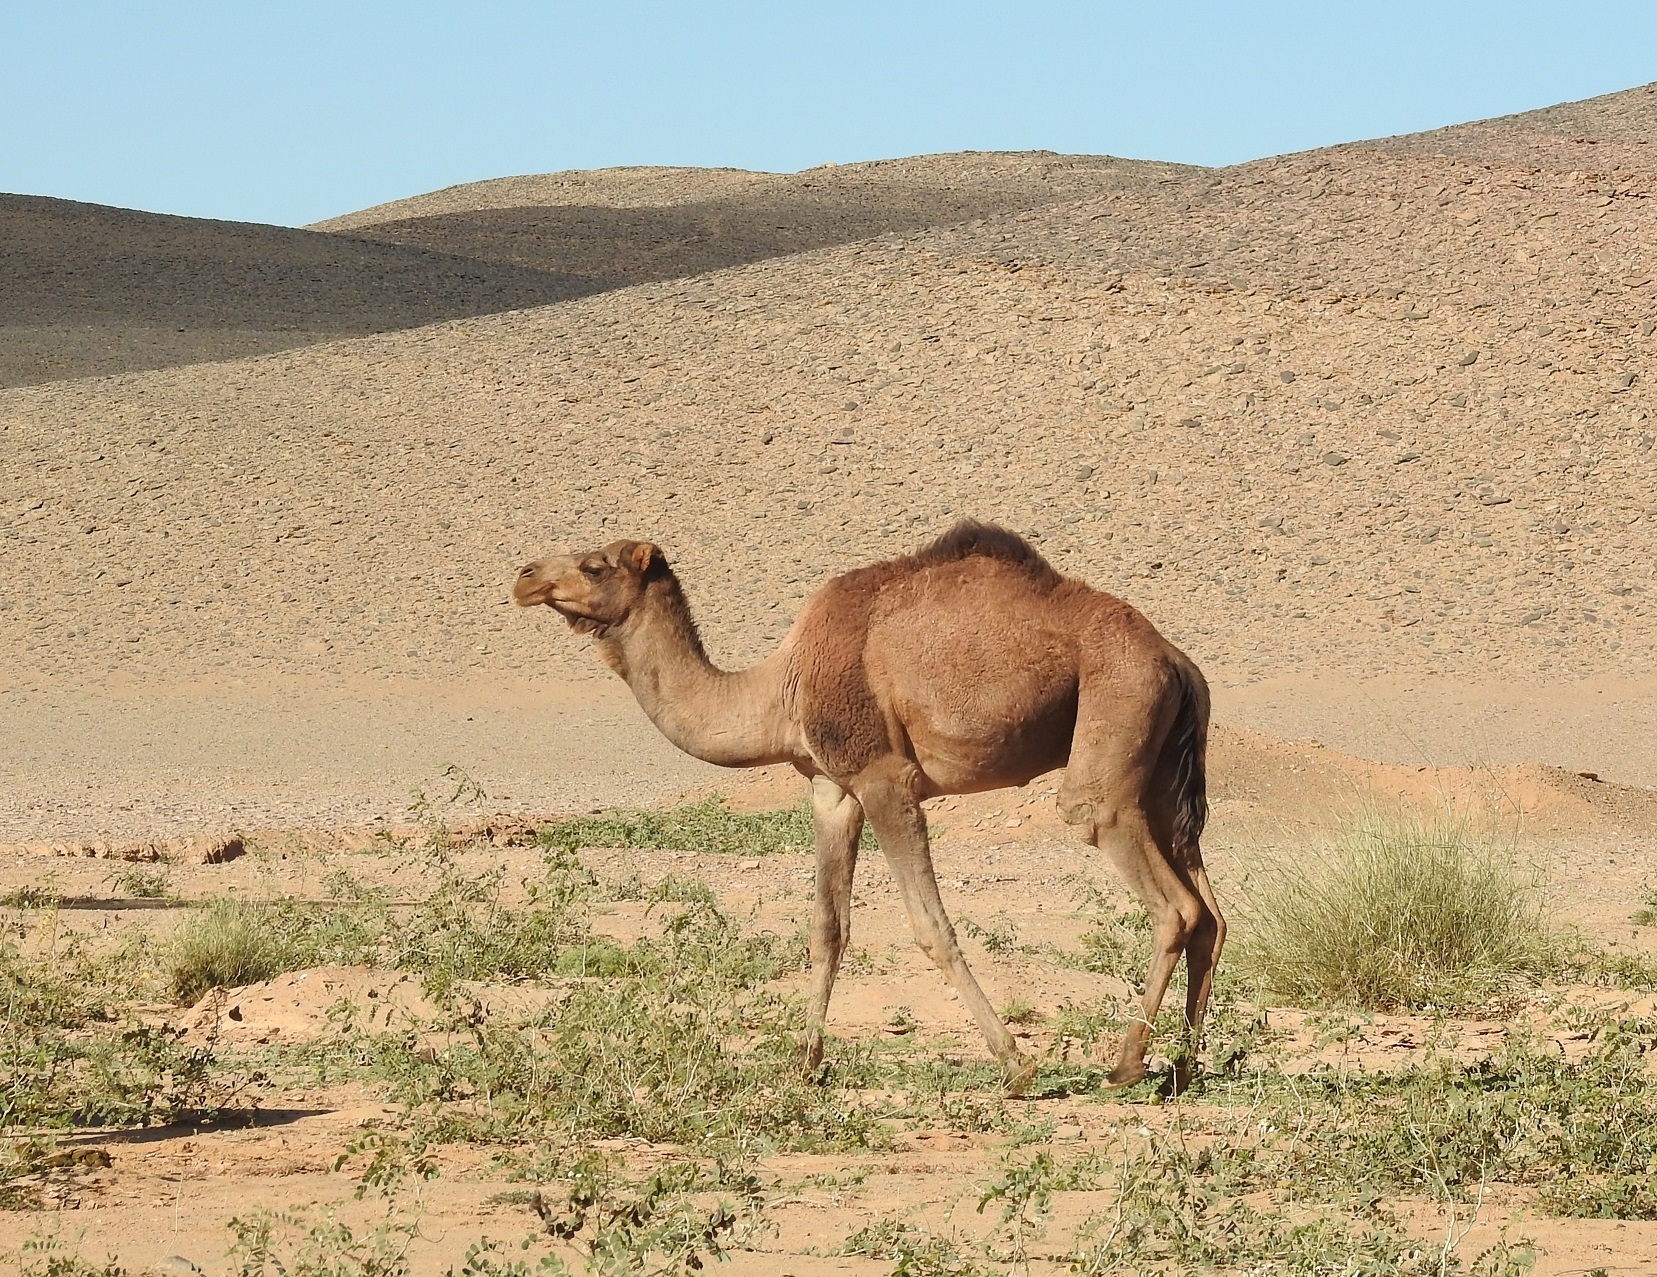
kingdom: Animalia
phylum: Chordata
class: Mammalia
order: Artiodactyla
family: Camelidae
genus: Camelus
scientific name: Camelus dromedarius
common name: One-humped camel
